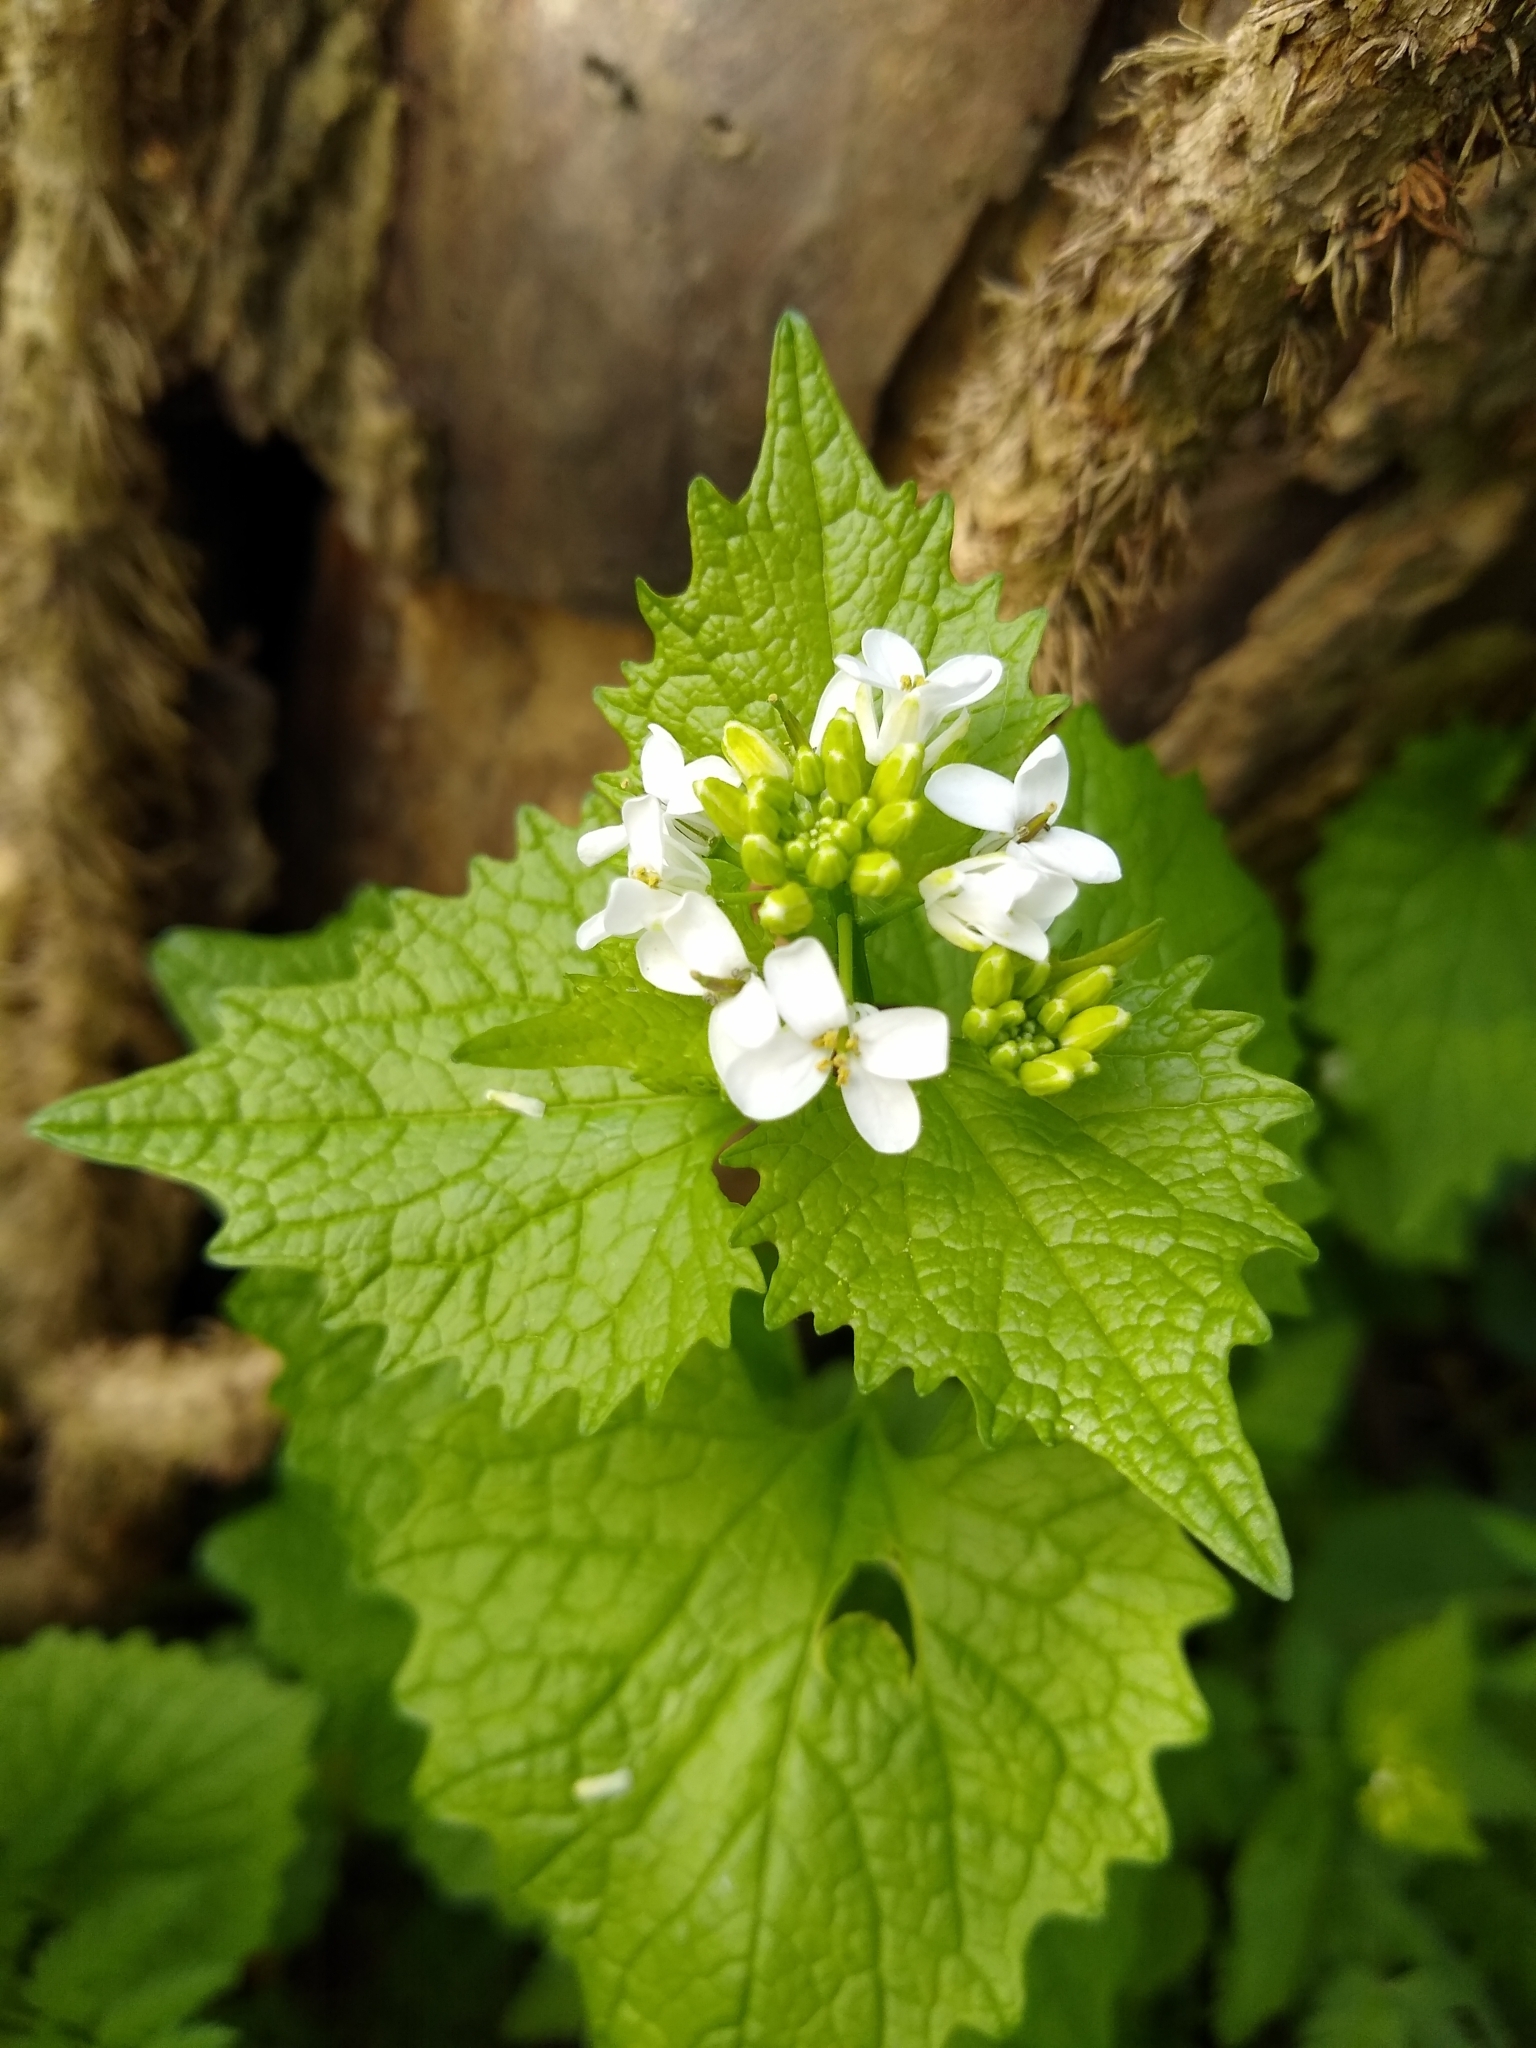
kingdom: Plantae
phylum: Tracheophyta
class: Magnoliopsida
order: Brassicales
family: Brassicaceae
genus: Alliaria
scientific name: Alliaria petiolata
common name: Garlic mustard
